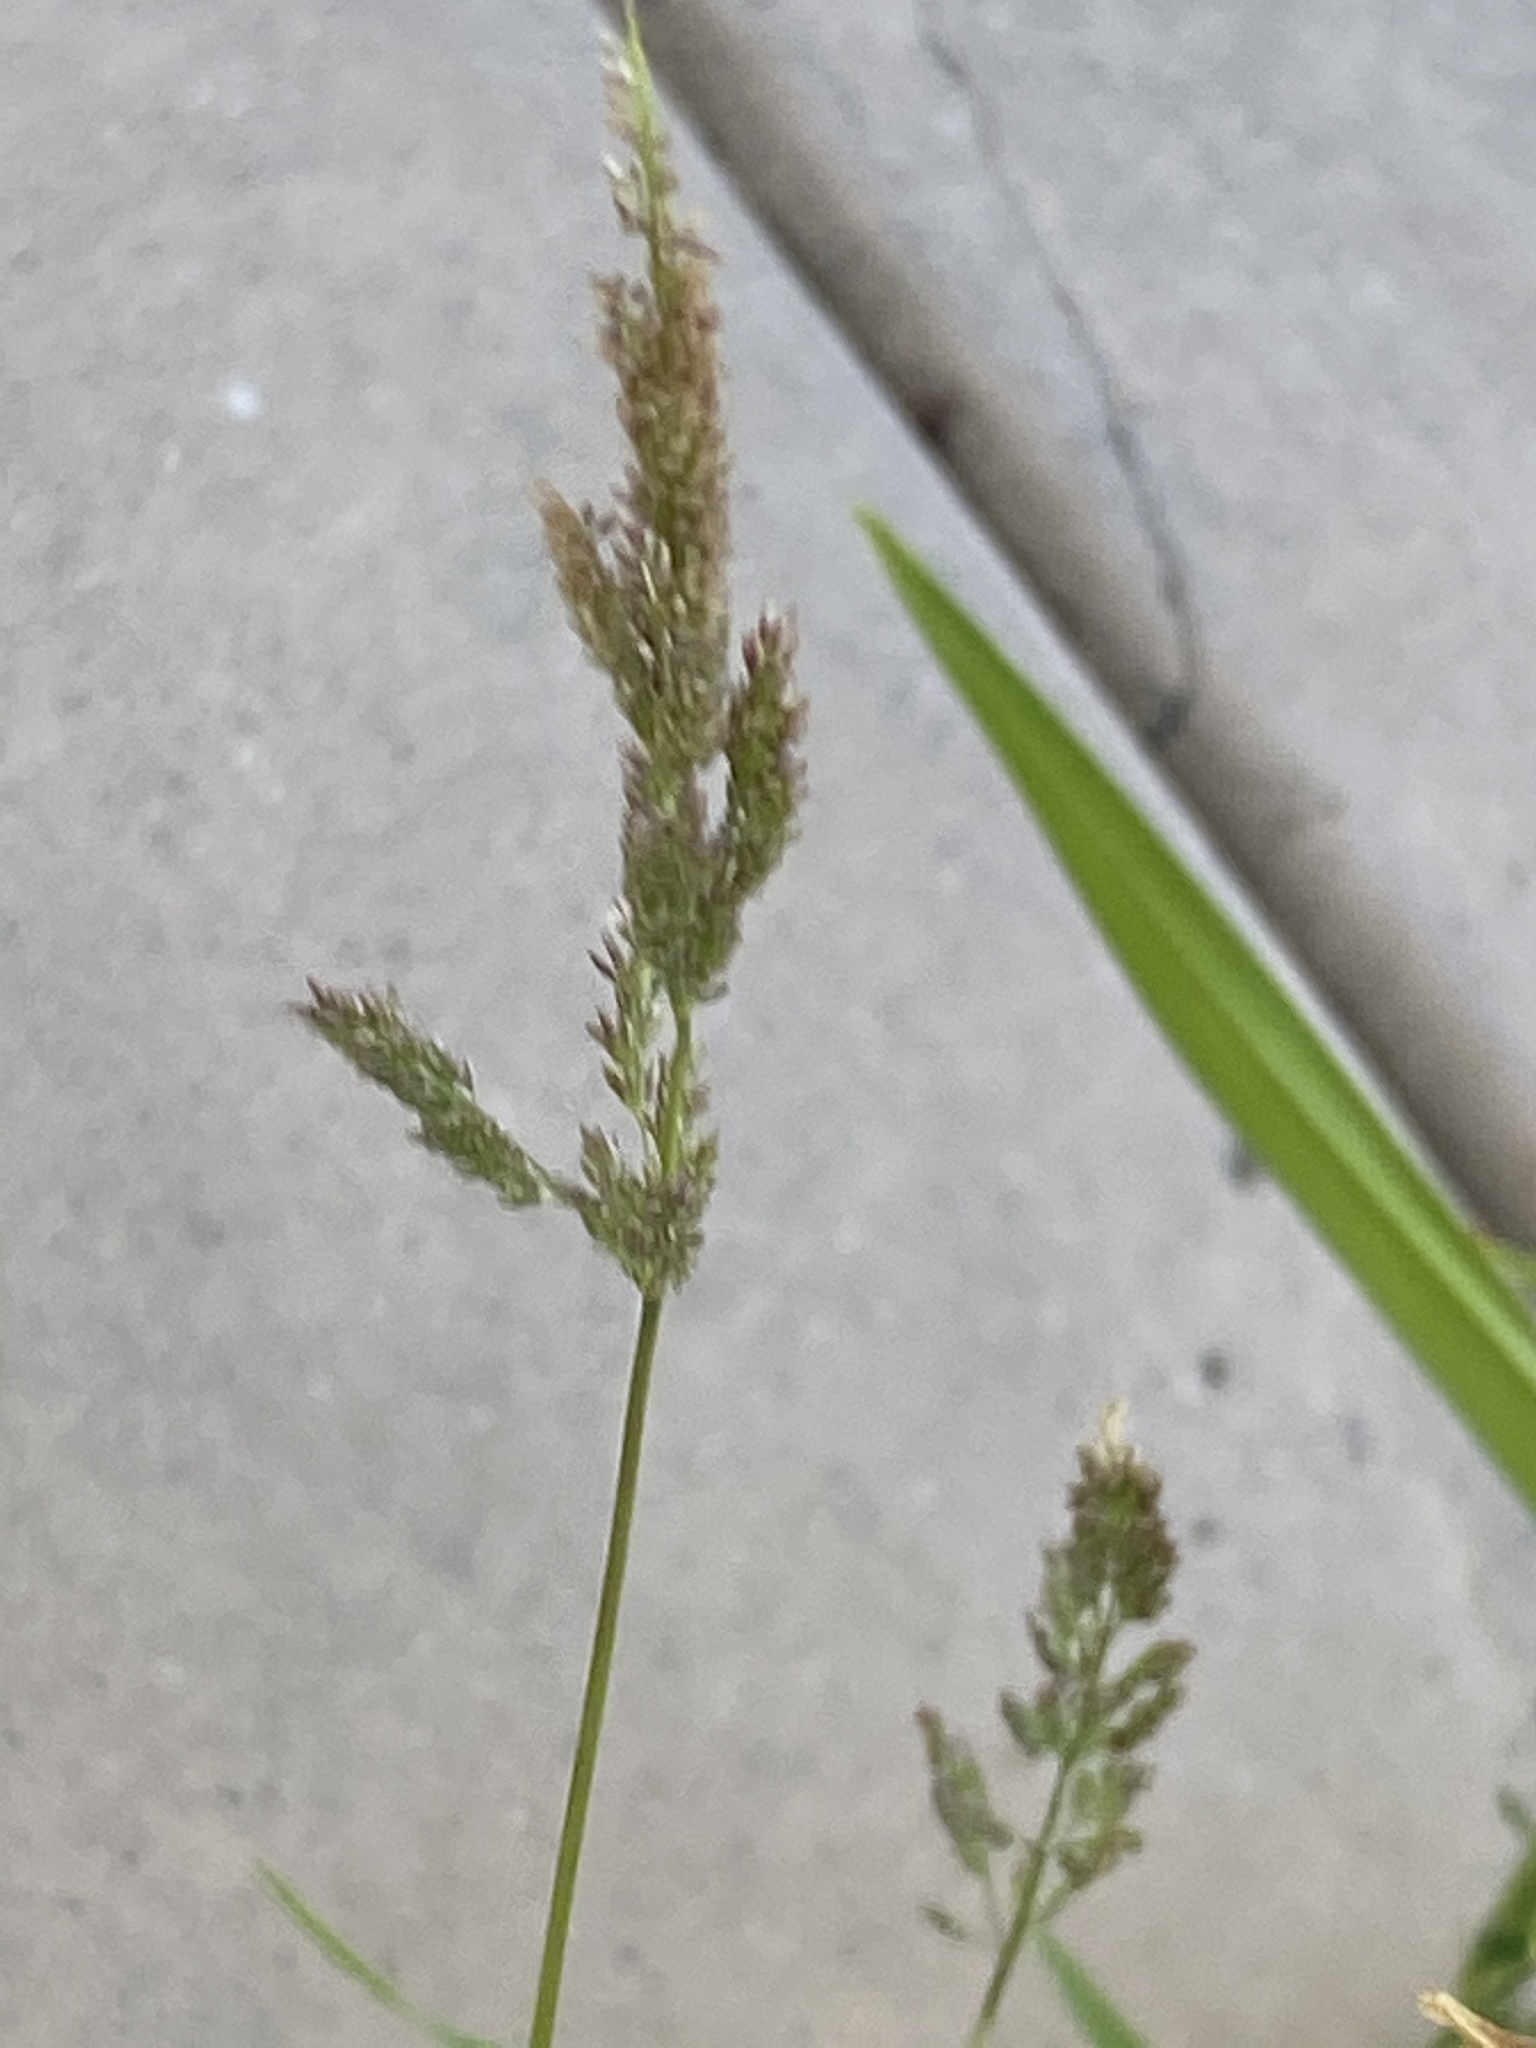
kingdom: Plantae
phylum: Tracheophyta
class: Liliopsida
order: Poales
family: Poaceae
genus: Polypogon
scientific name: Polypogon viridis
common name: Water bent
